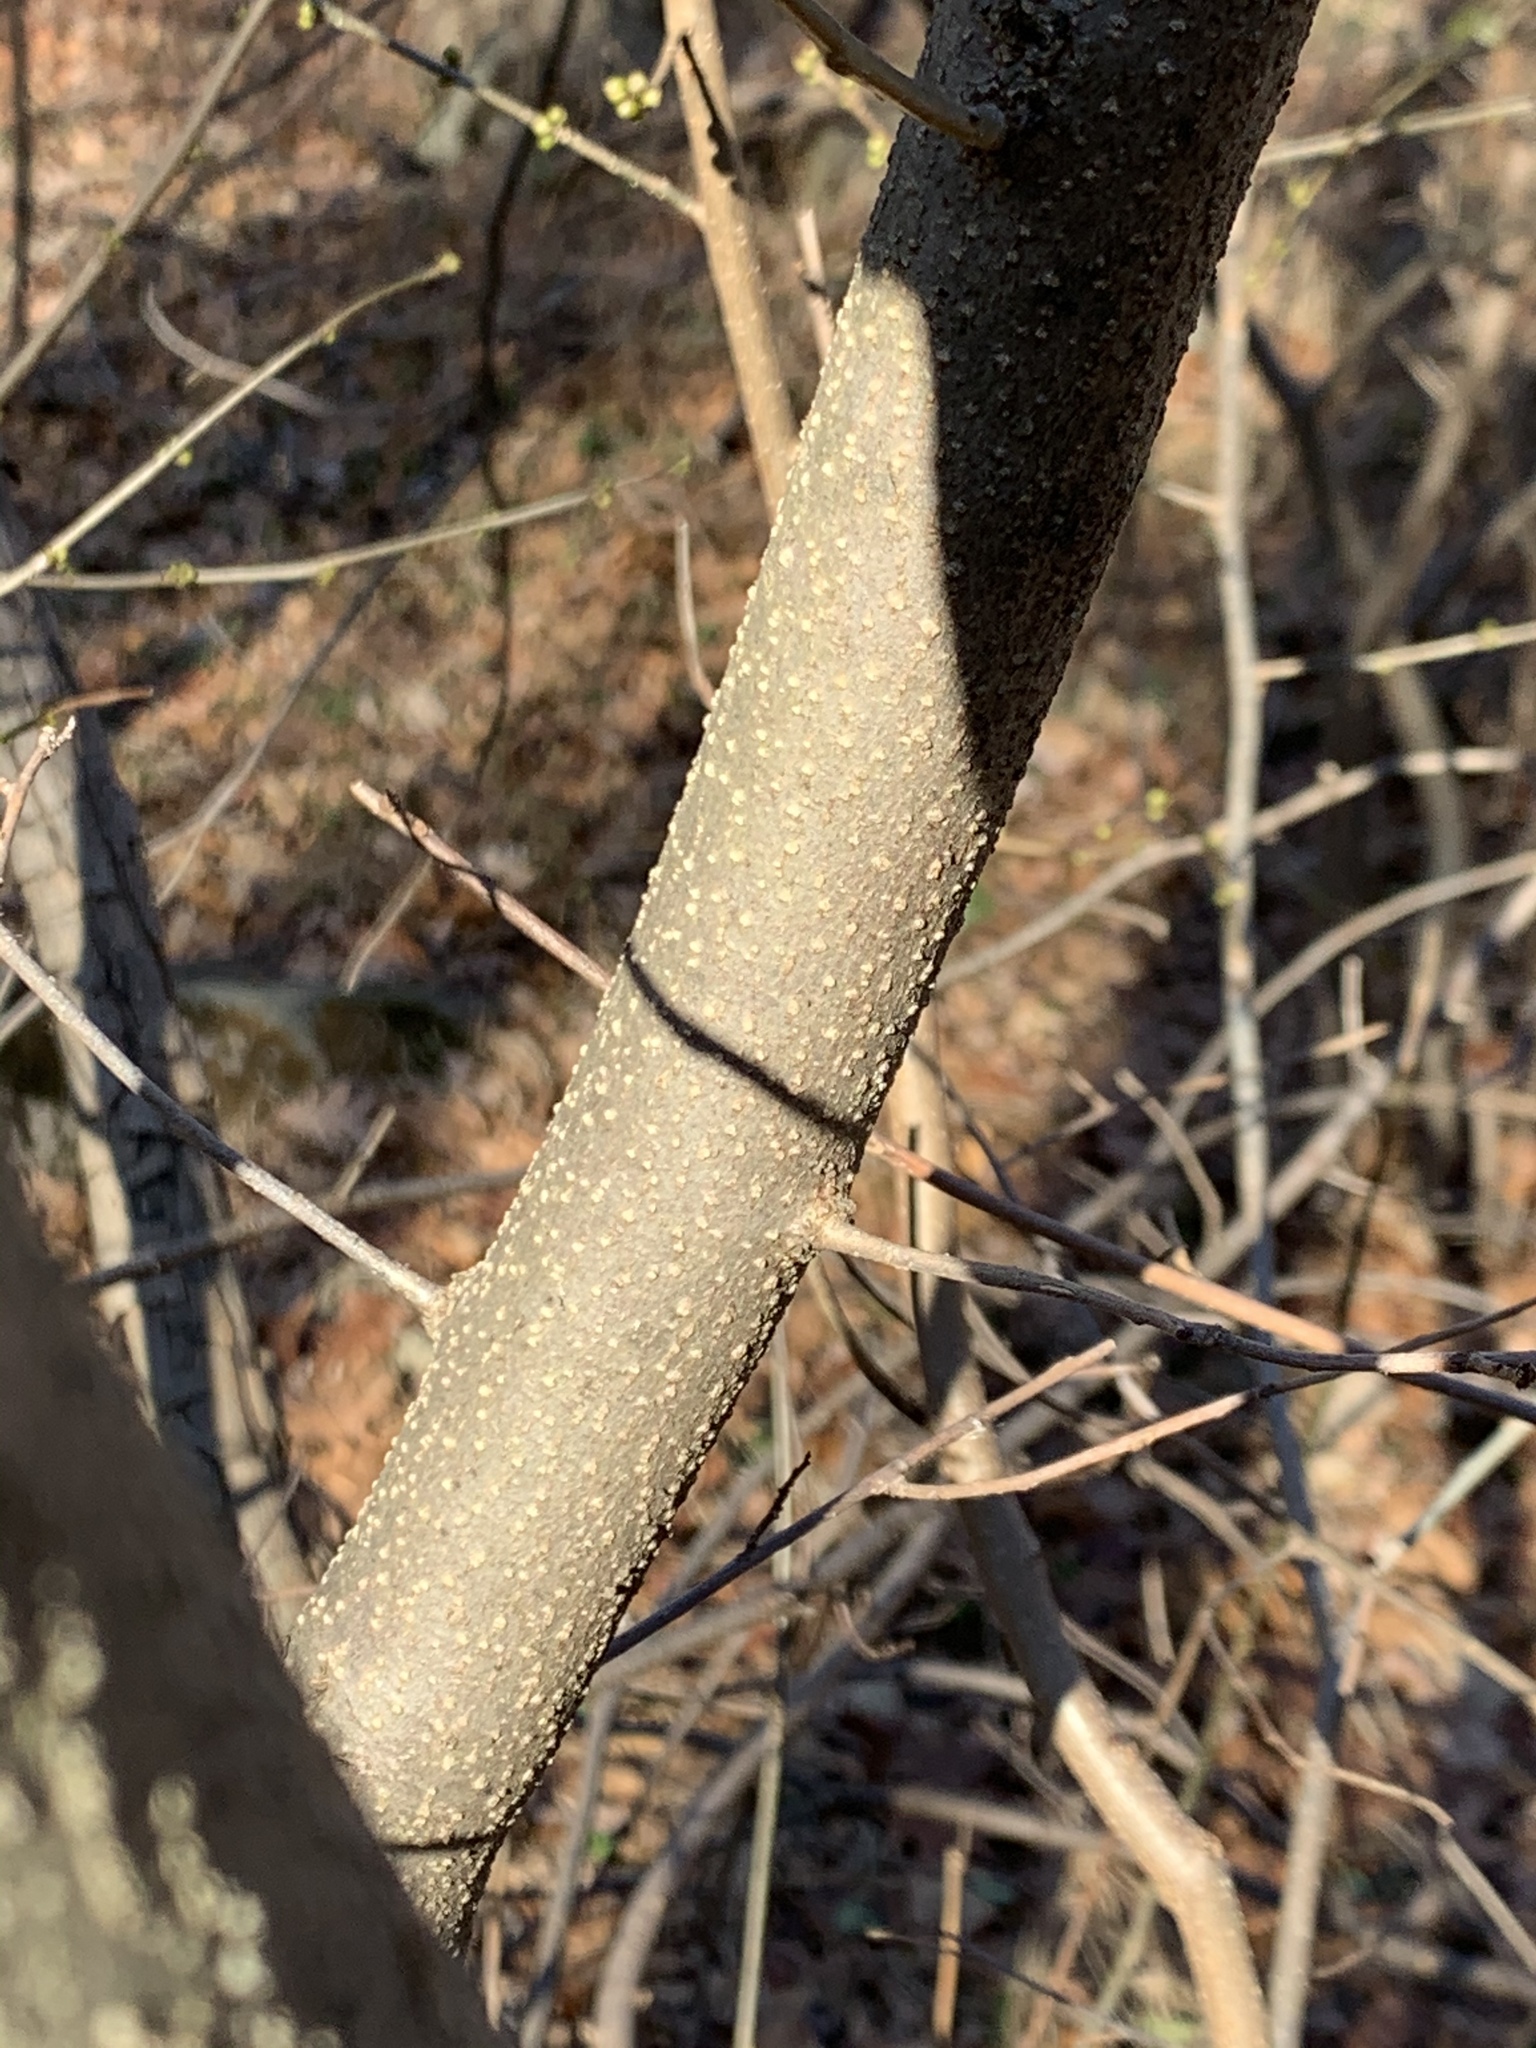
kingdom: Plantae
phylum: Tracheophyta
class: Magnoliopsida
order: Laurales
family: Lauraceae
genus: Lindera
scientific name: Lindera benzoin
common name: Spicebush
